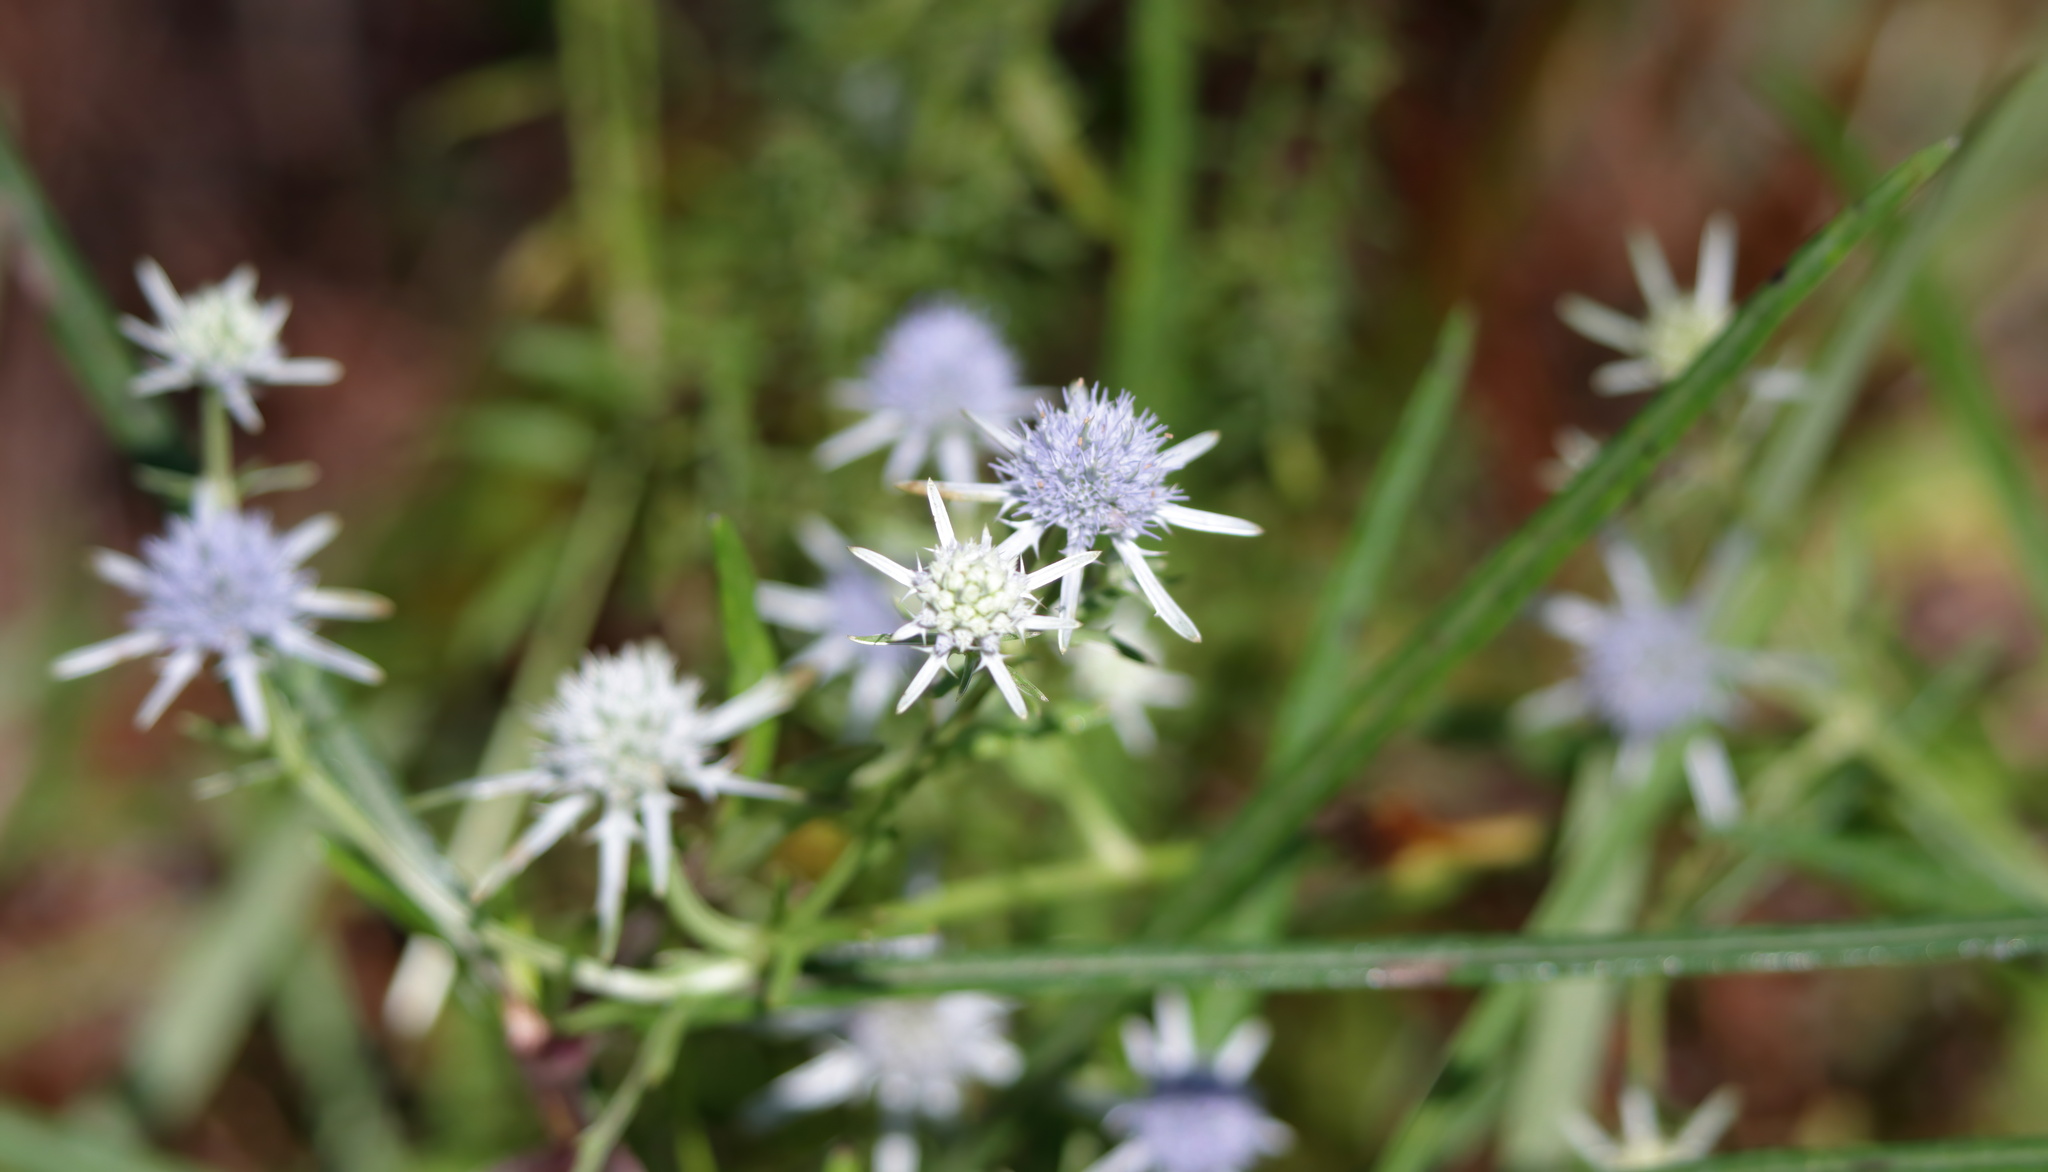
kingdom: Plantae
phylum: Tracheophyta
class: Magnoliopsida
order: Apiales
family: Apiaceae
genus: Eryngium
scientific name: Eryngium integrifolium
